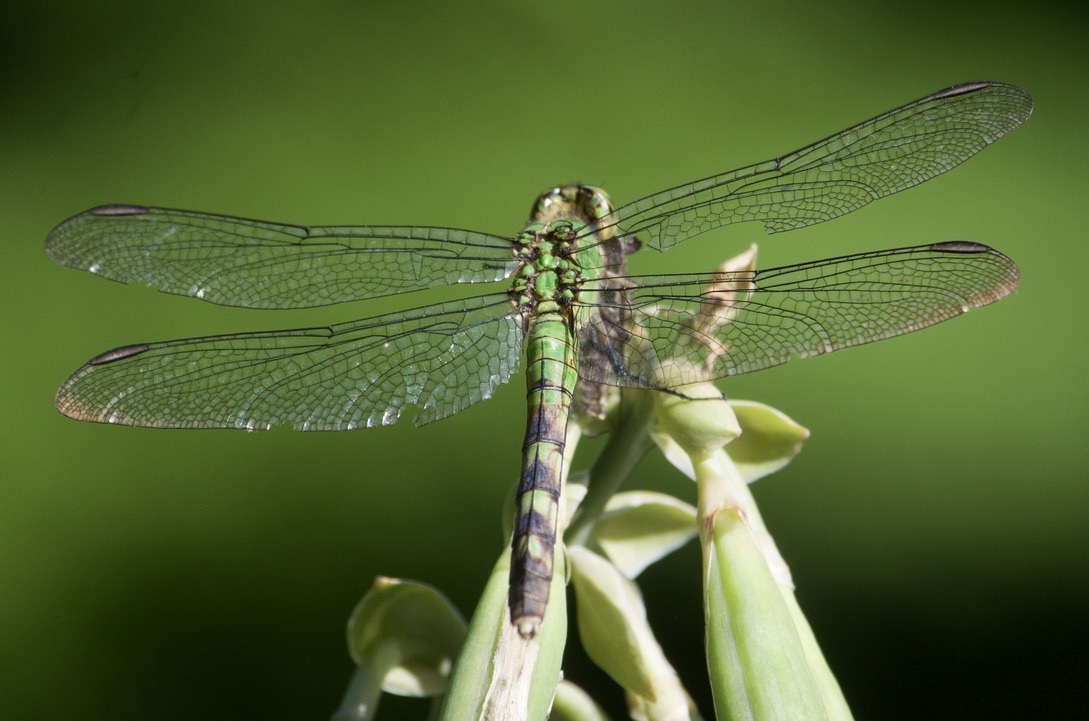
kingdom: Animalia
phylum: Arthropoda
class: Insecta
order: Odonata
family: Libellulidae
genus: Erythemis
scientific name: Erythemis simplicicollis
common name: Eastern pondhawk
